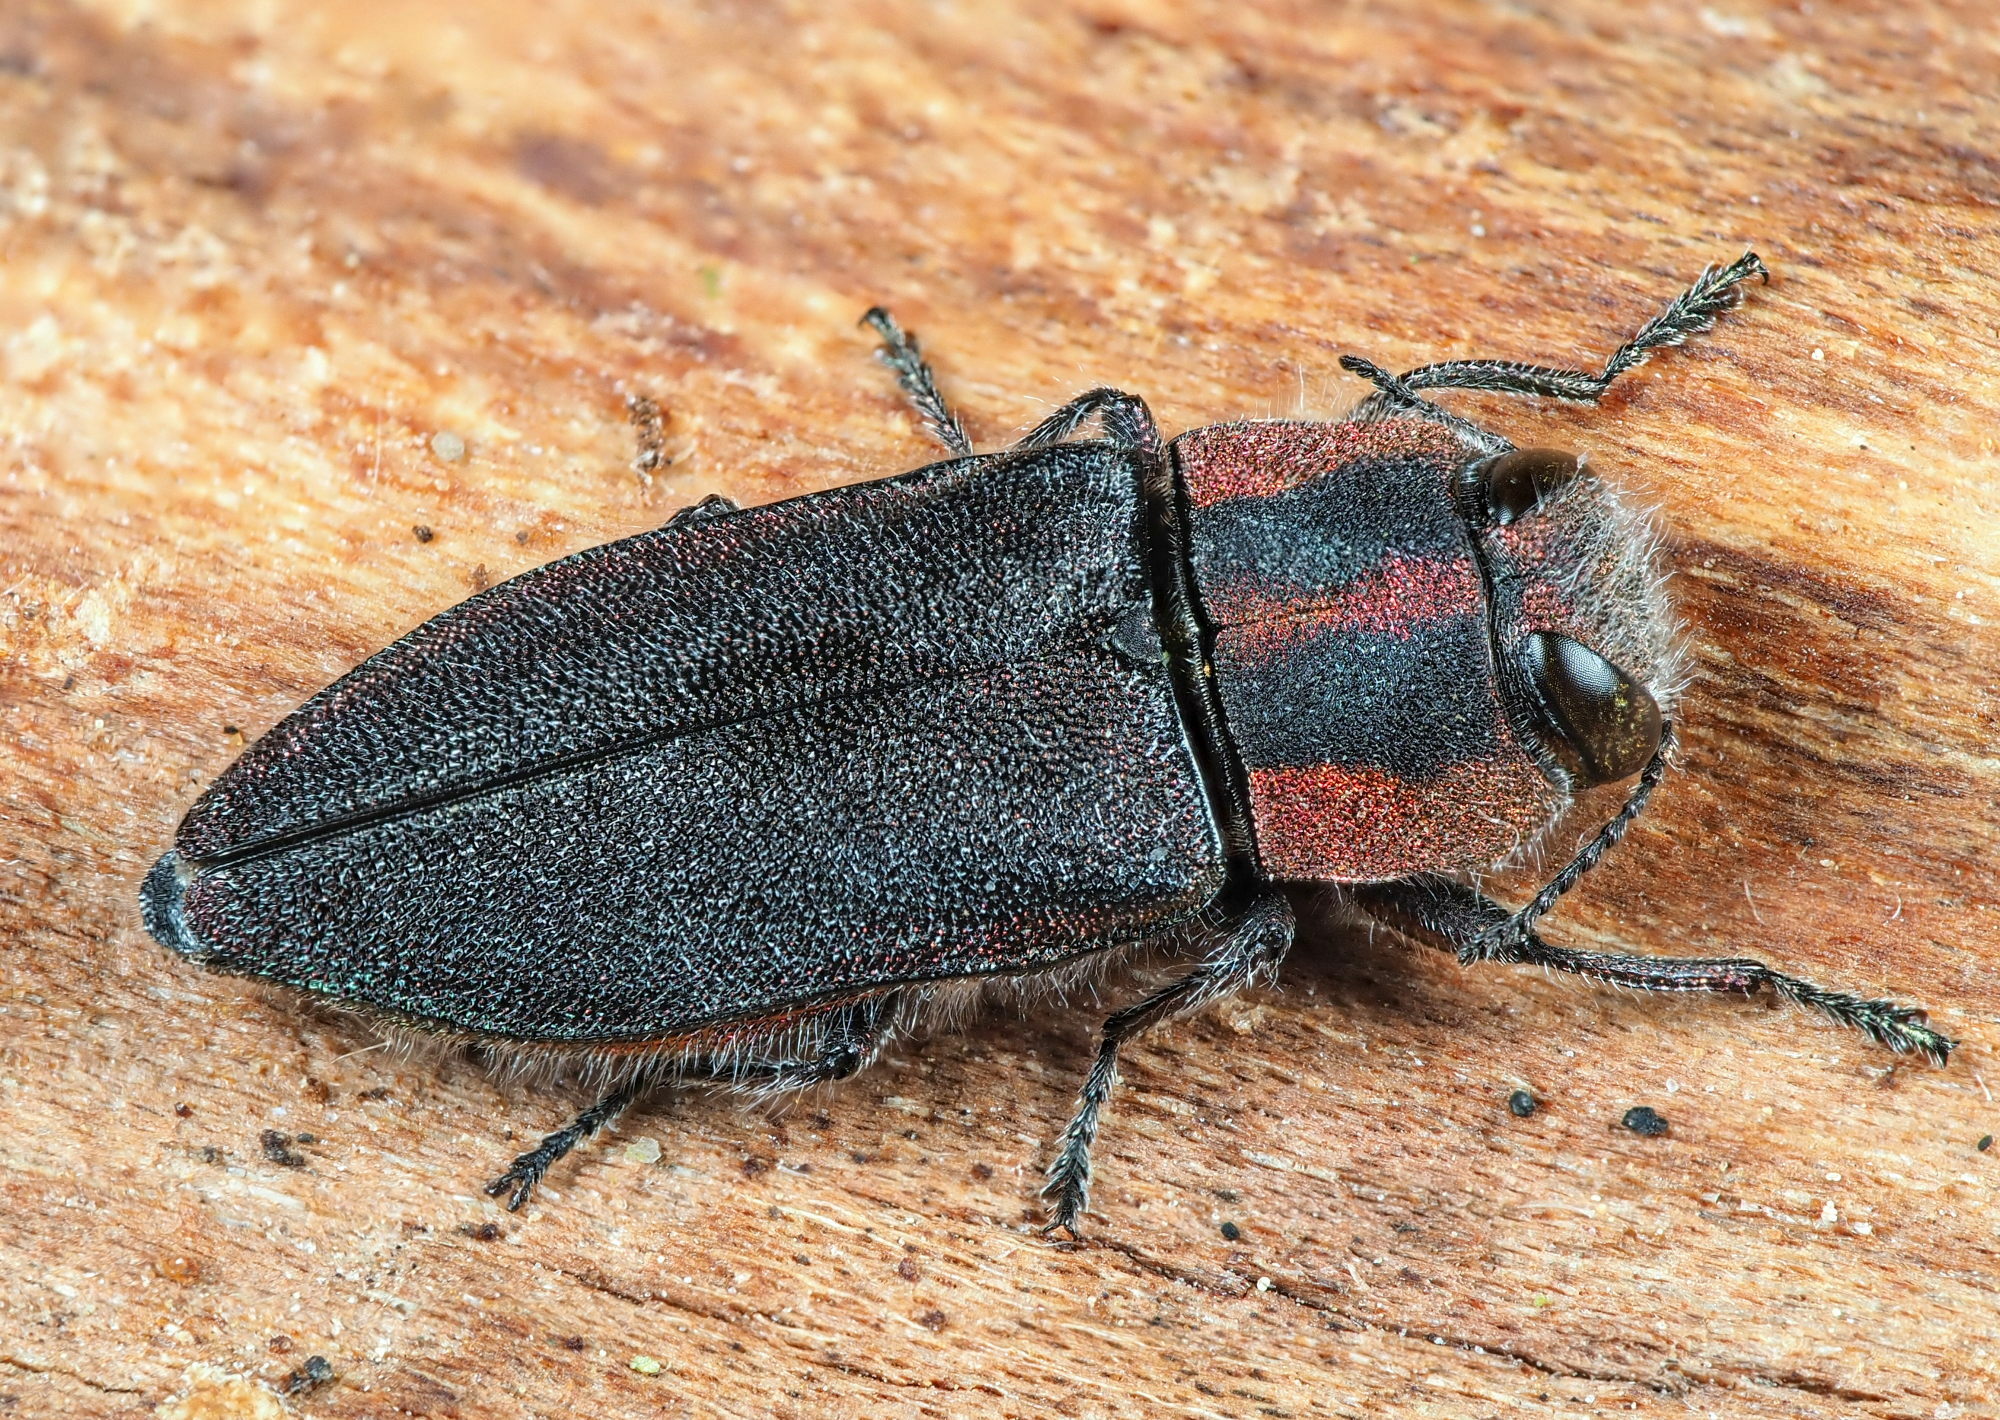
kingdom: Animalia
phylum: Arthropoda
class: Insecta
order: Coleoptera
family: Buprestidae
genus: Anthaxia
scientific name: Anthaxia manca
